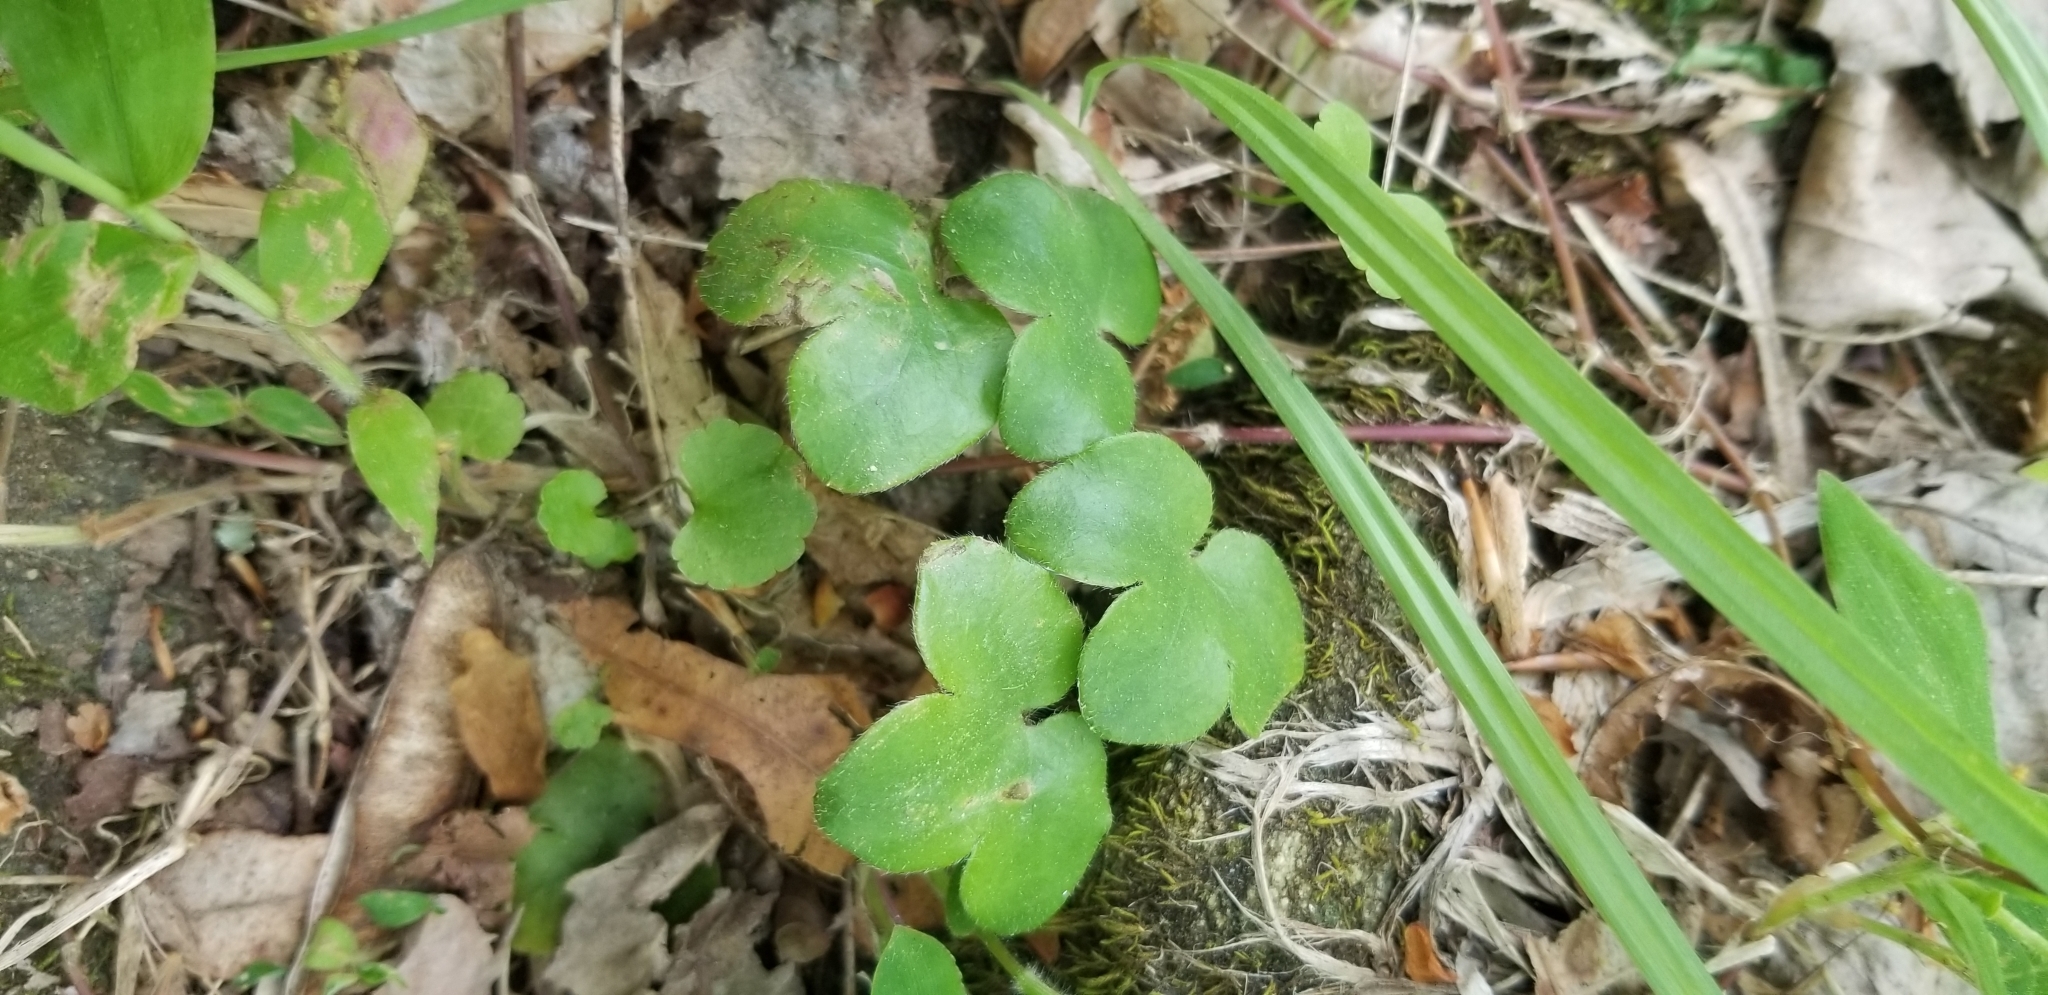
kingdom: Plantae
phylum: Tracheophyta
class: Magnoliopsida
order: Ranunculales
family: Ranunculaceae
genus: Hepatica
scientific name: Hepatica americana
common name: American hepatica
